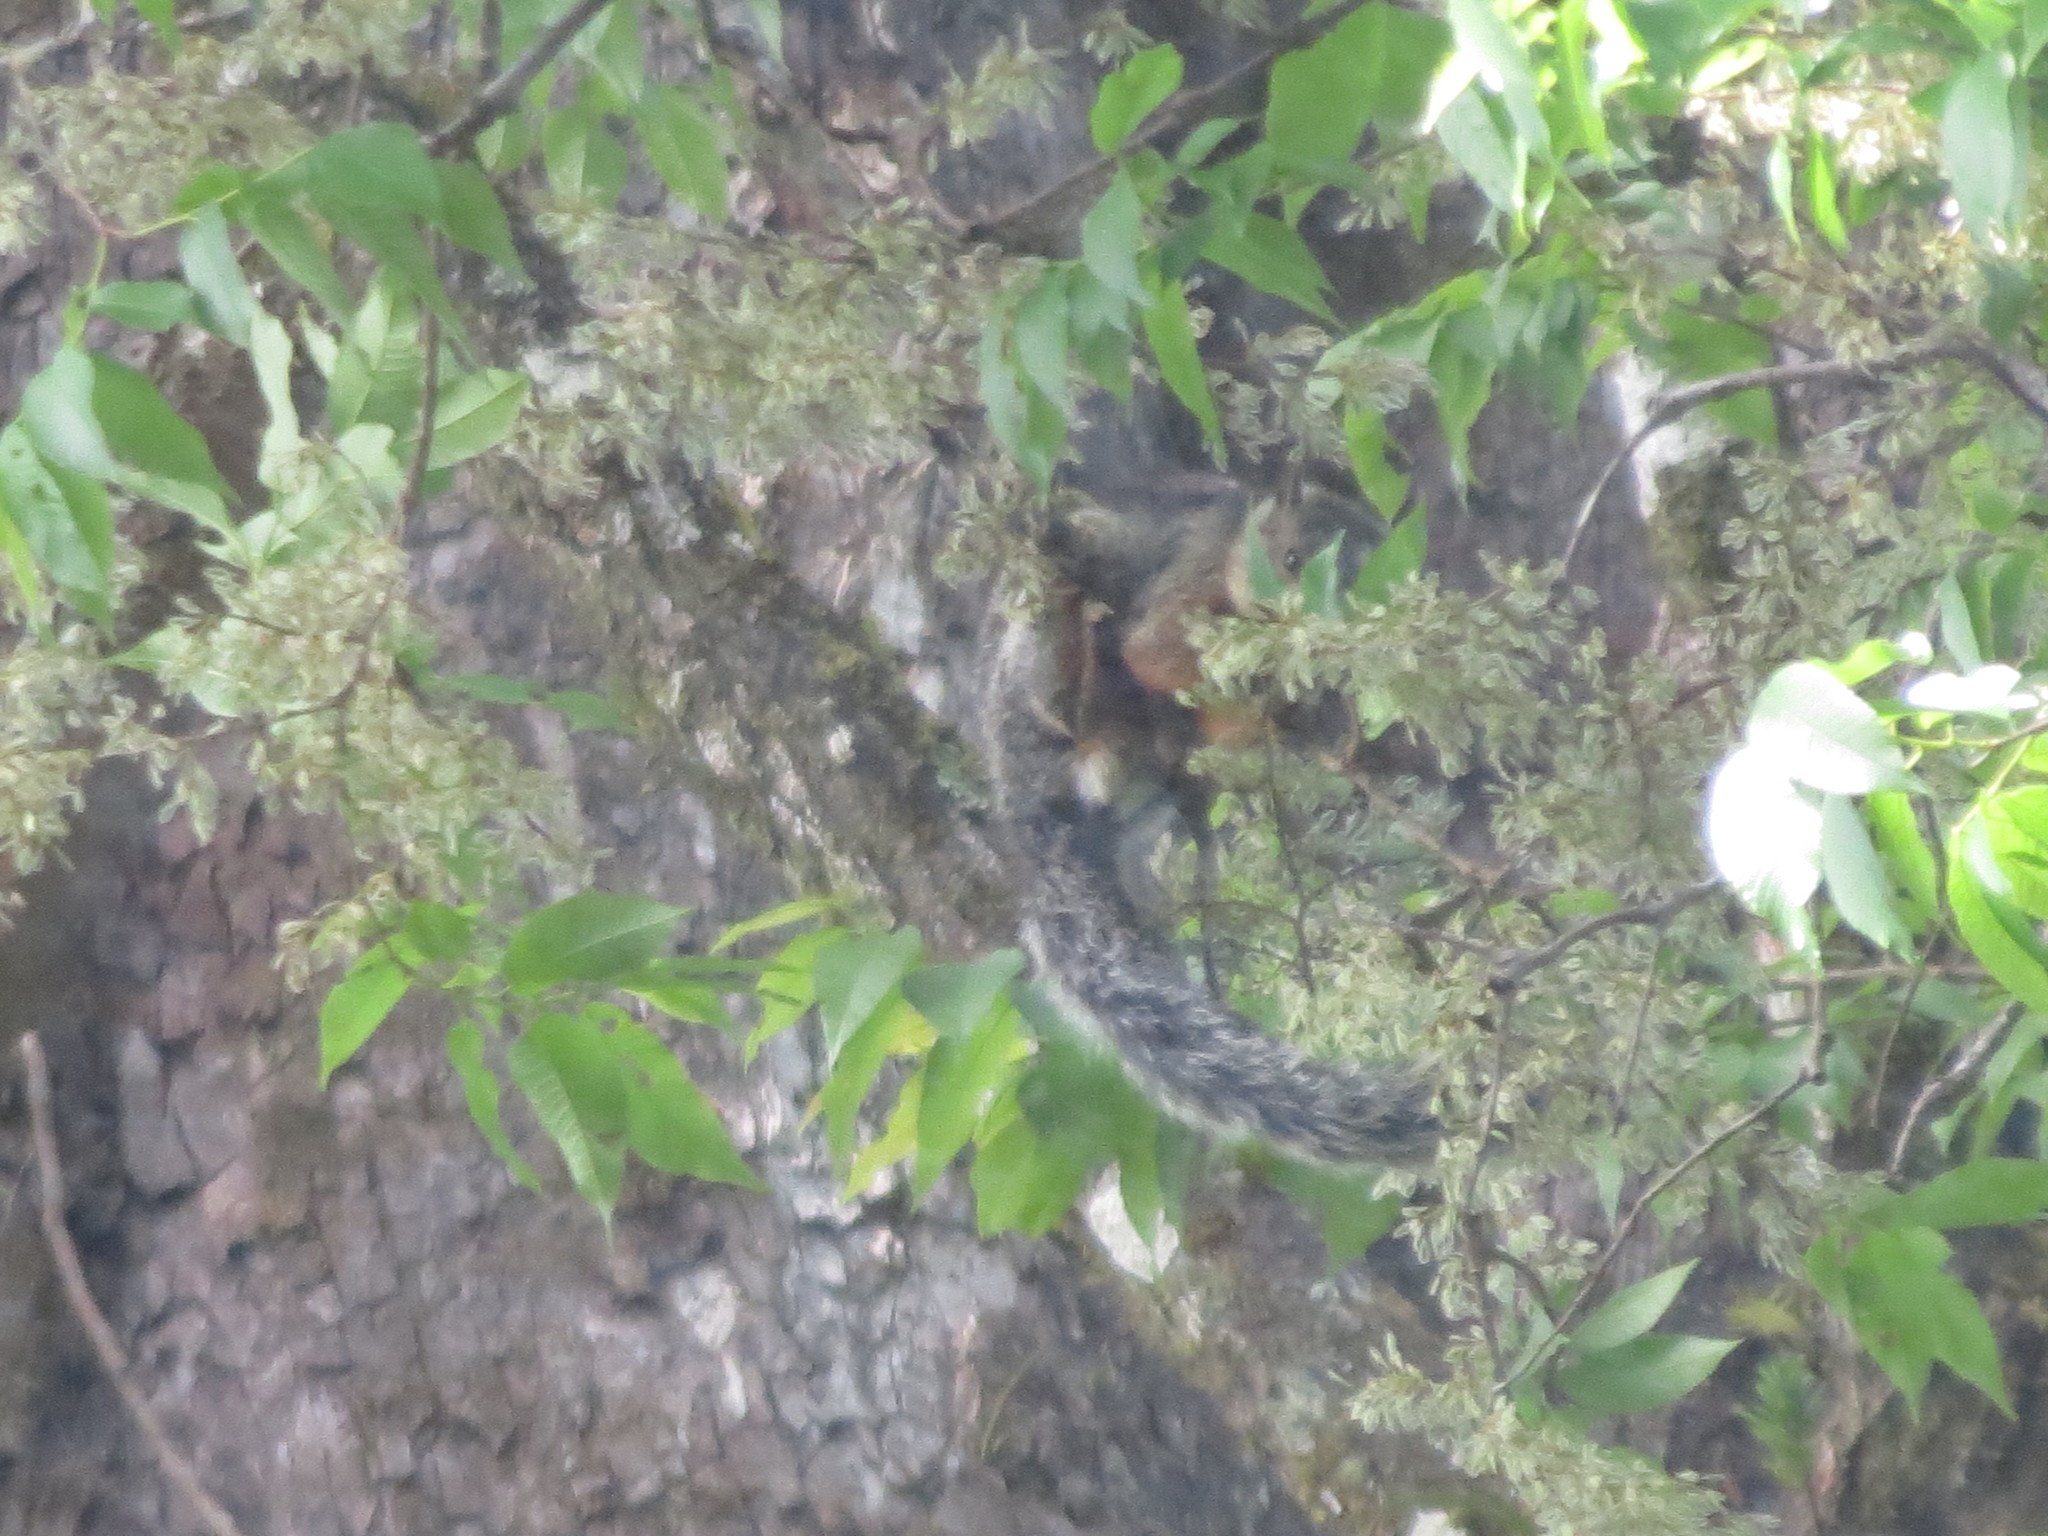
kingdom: Animalia
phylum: Chordata
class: Mammalia
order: Rodentia
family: Sciuridae
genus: Sciurus
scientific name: Sciurus variegatoides
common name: Variegated squirrel
